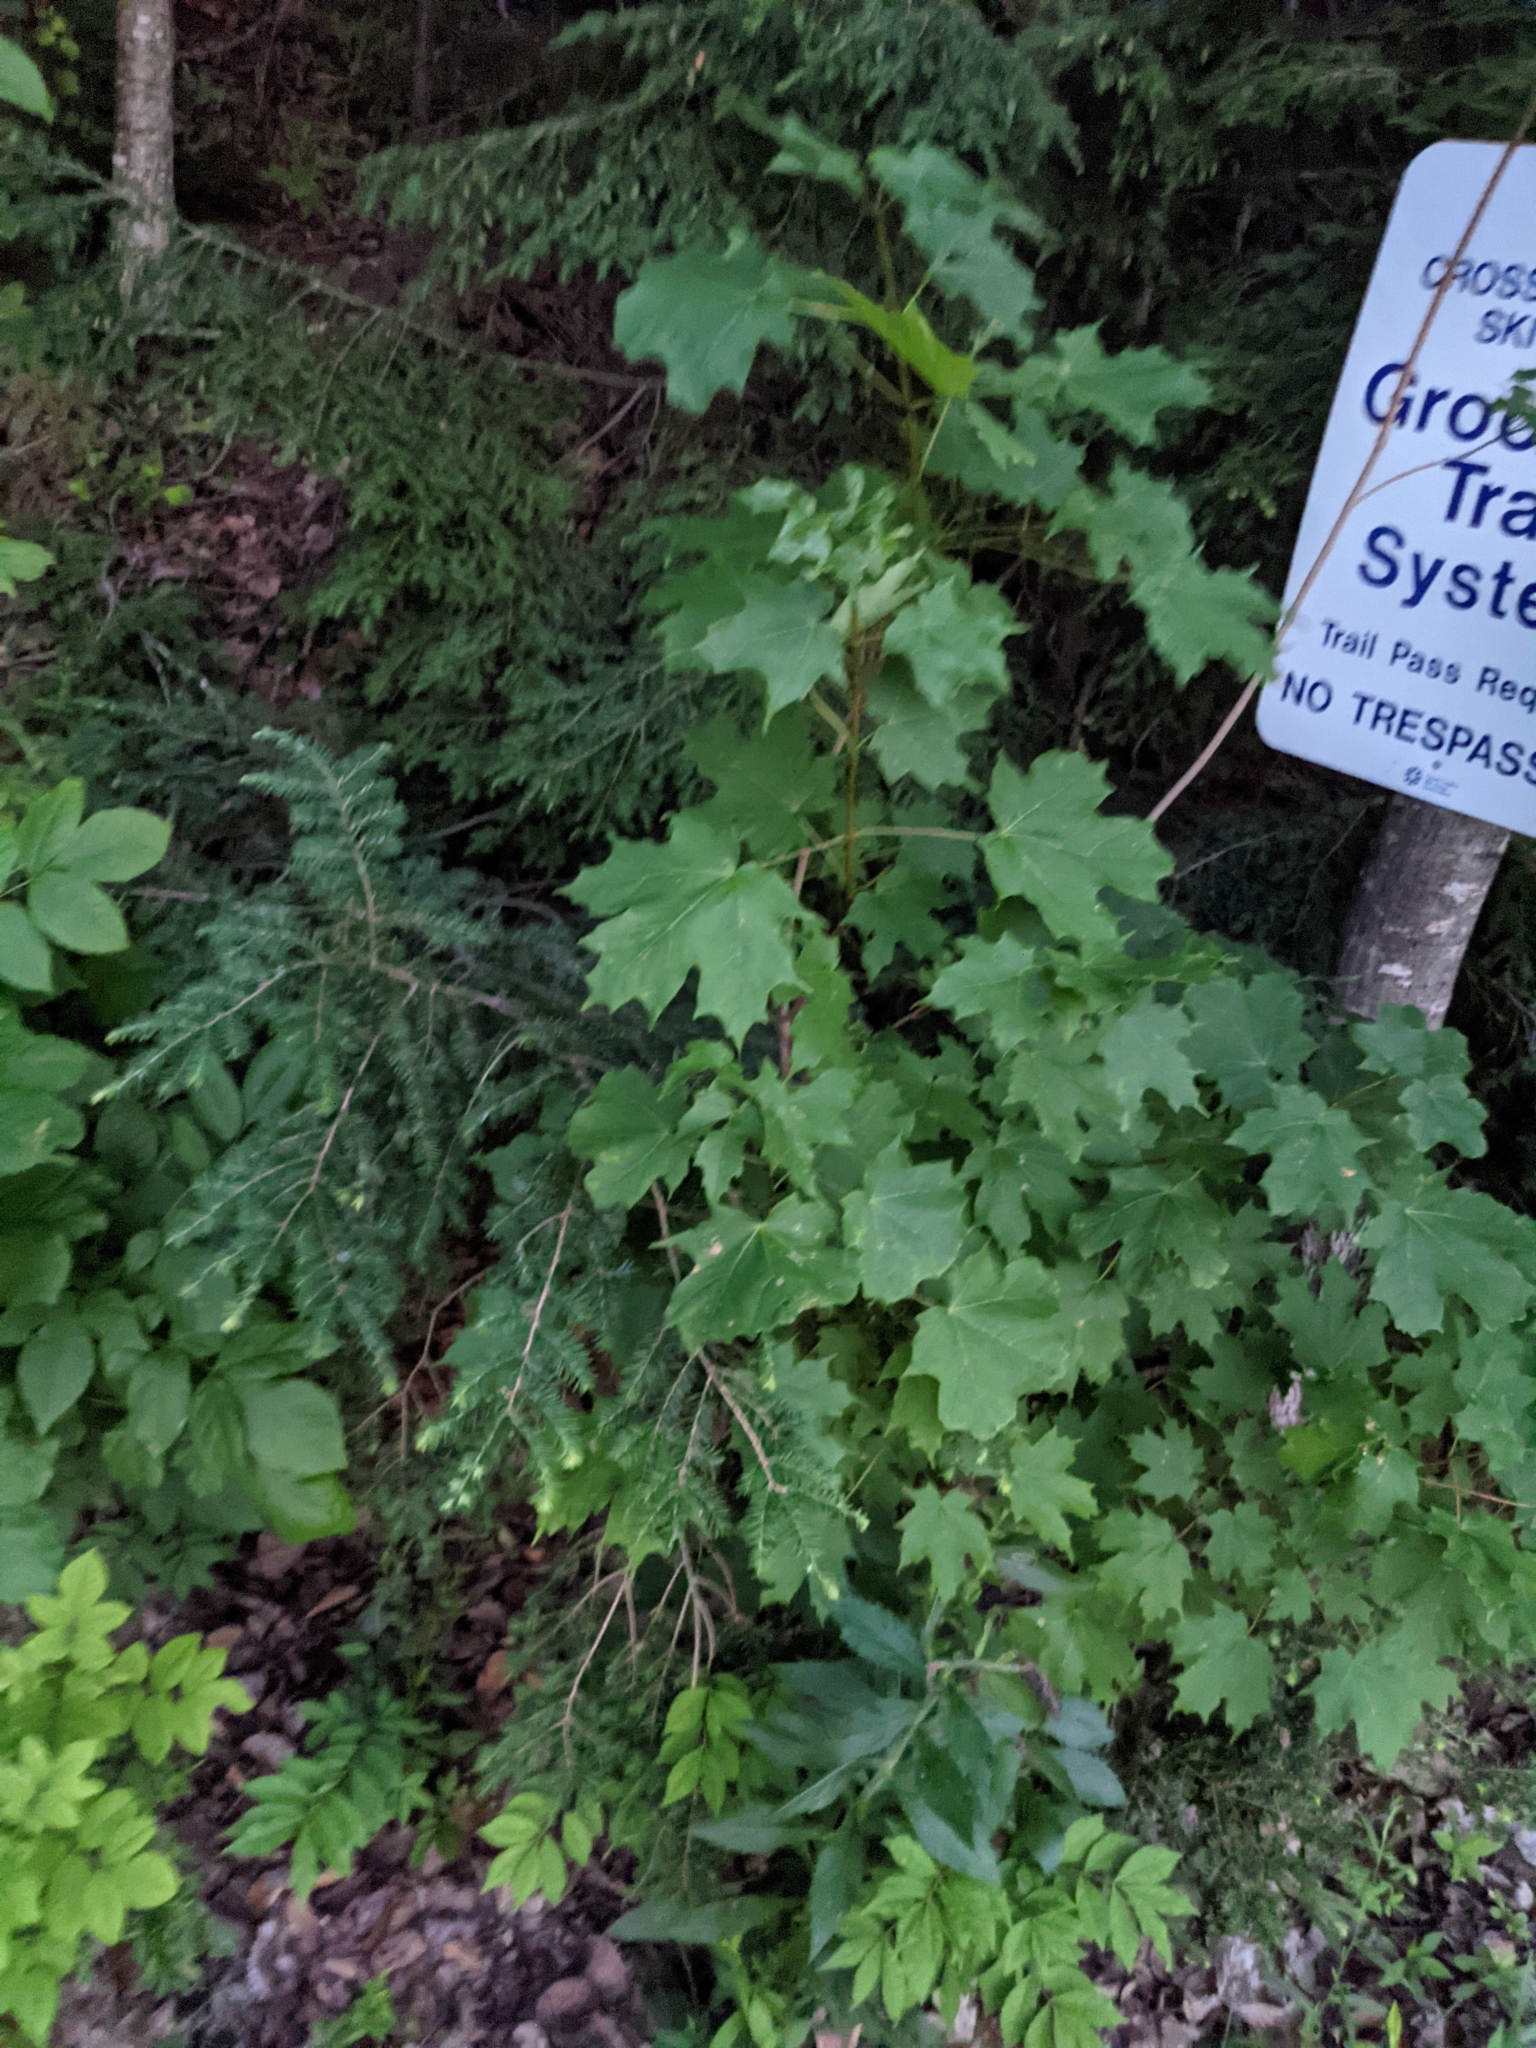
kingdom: Plantae
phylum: Tracheophyta
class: Magnoliopsida
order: Sapindales
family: Sapindaceae
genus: Acer
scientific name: Acer saccharum
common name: Sugar maple
